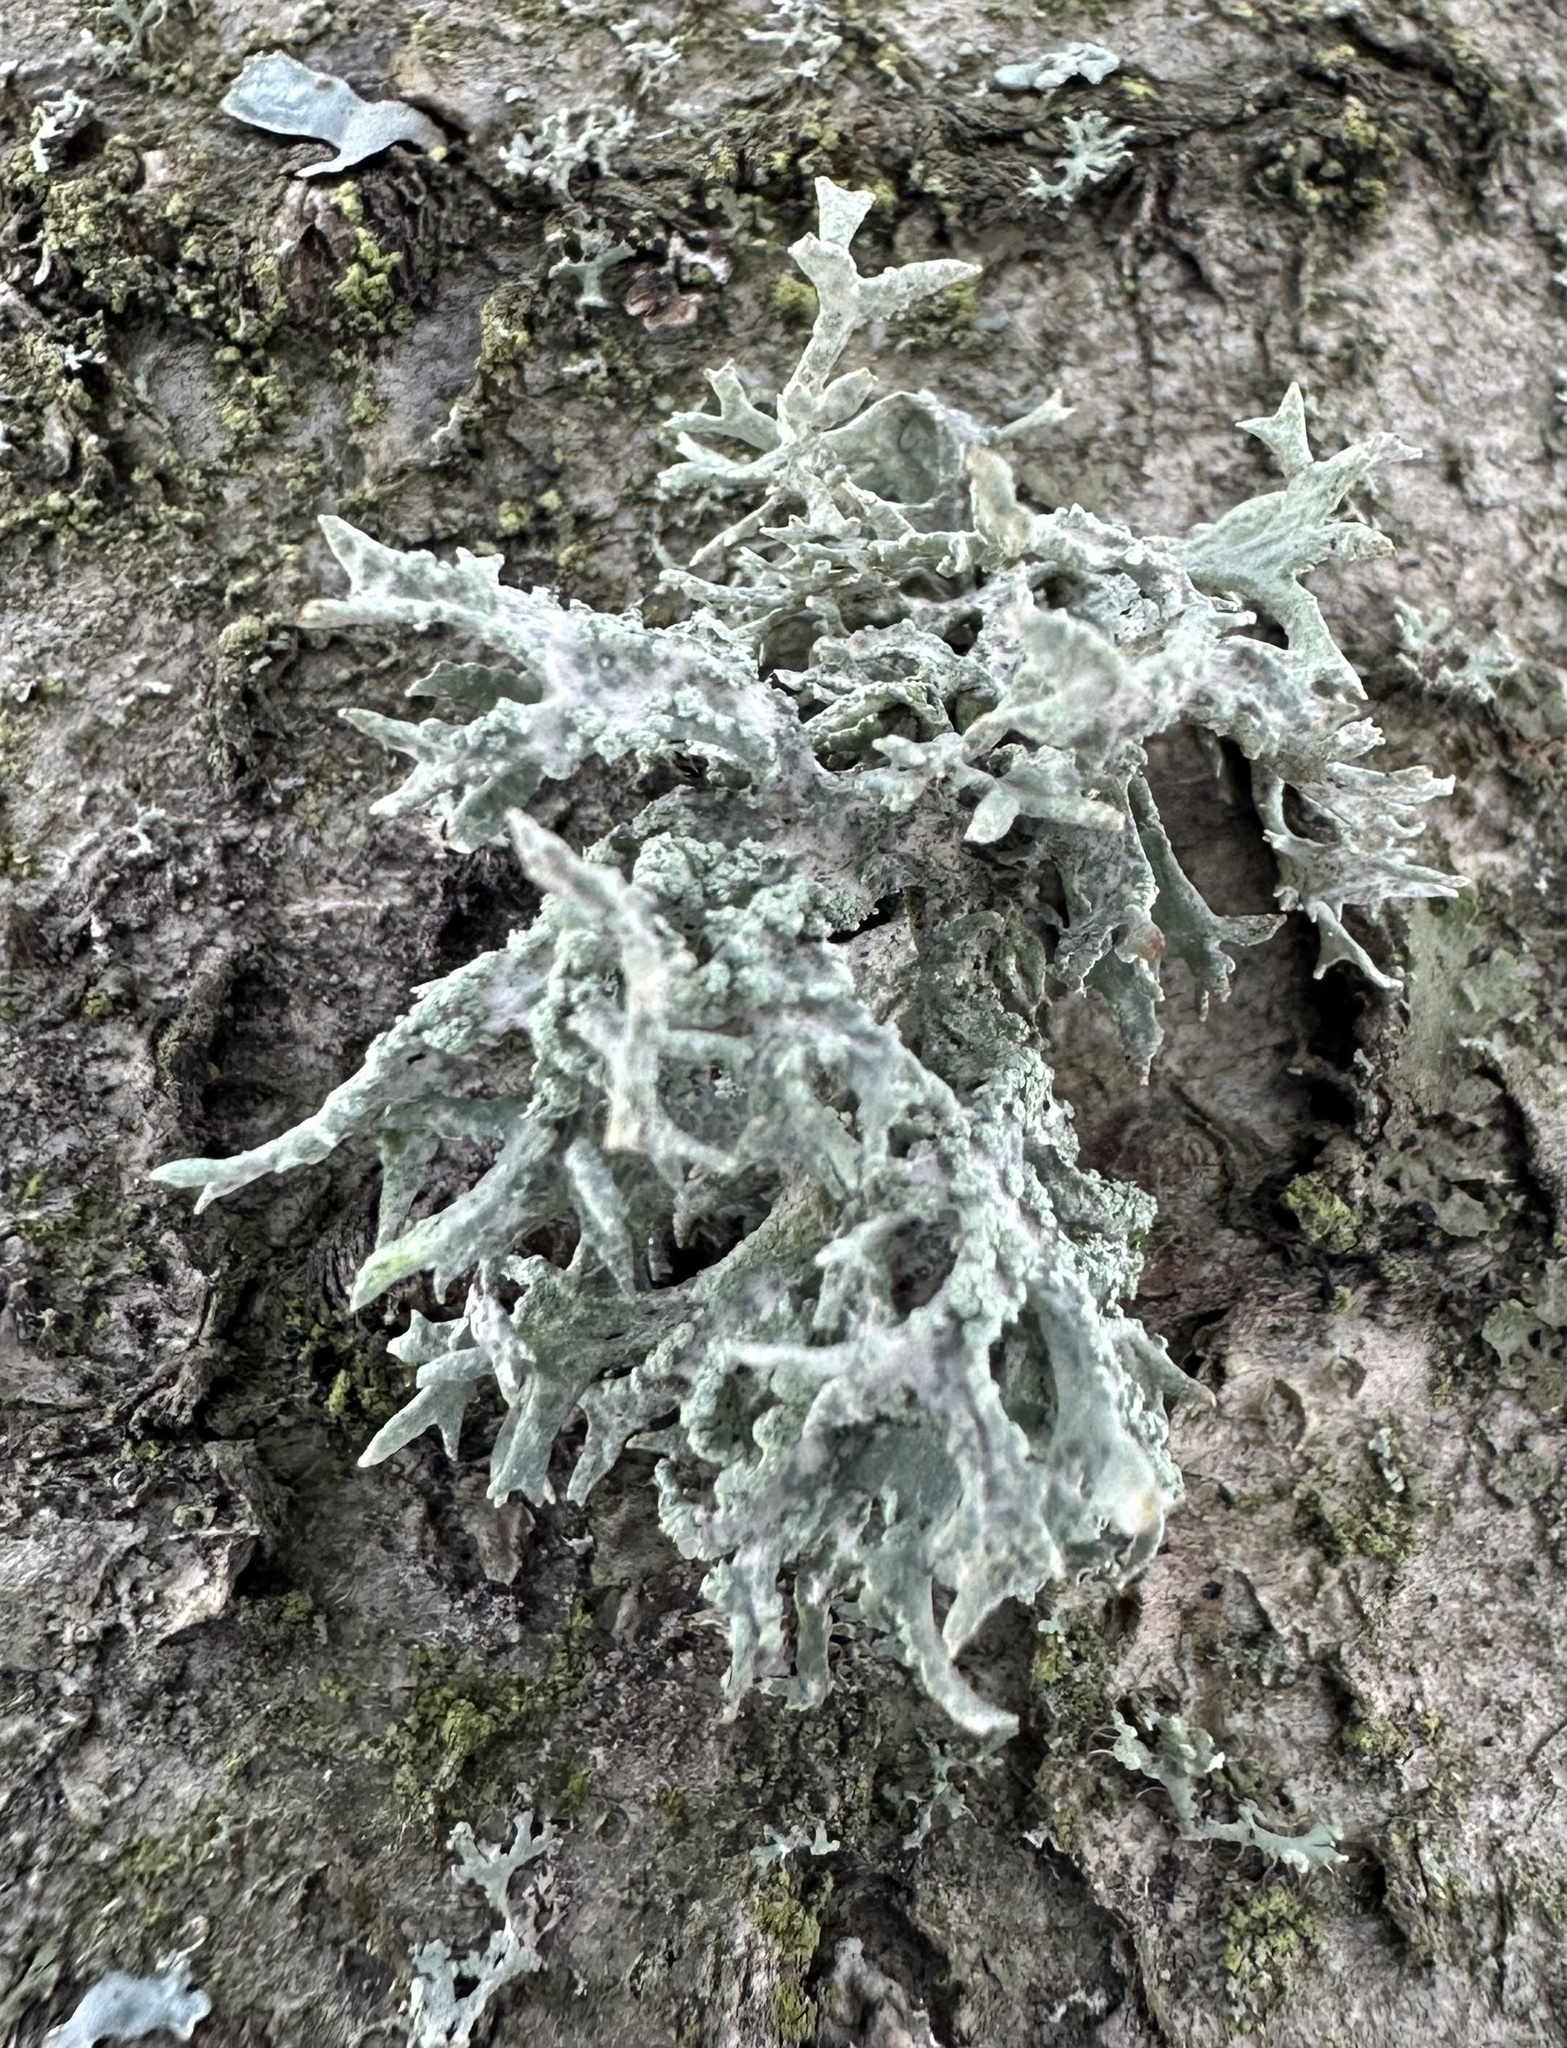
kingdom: Fungi
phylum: Ascomycota
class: Lecanoromycetes
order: Lecanorales
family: Parmeliaceae
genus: Evernia
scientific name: Evernia prunastri
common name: Oak moss
